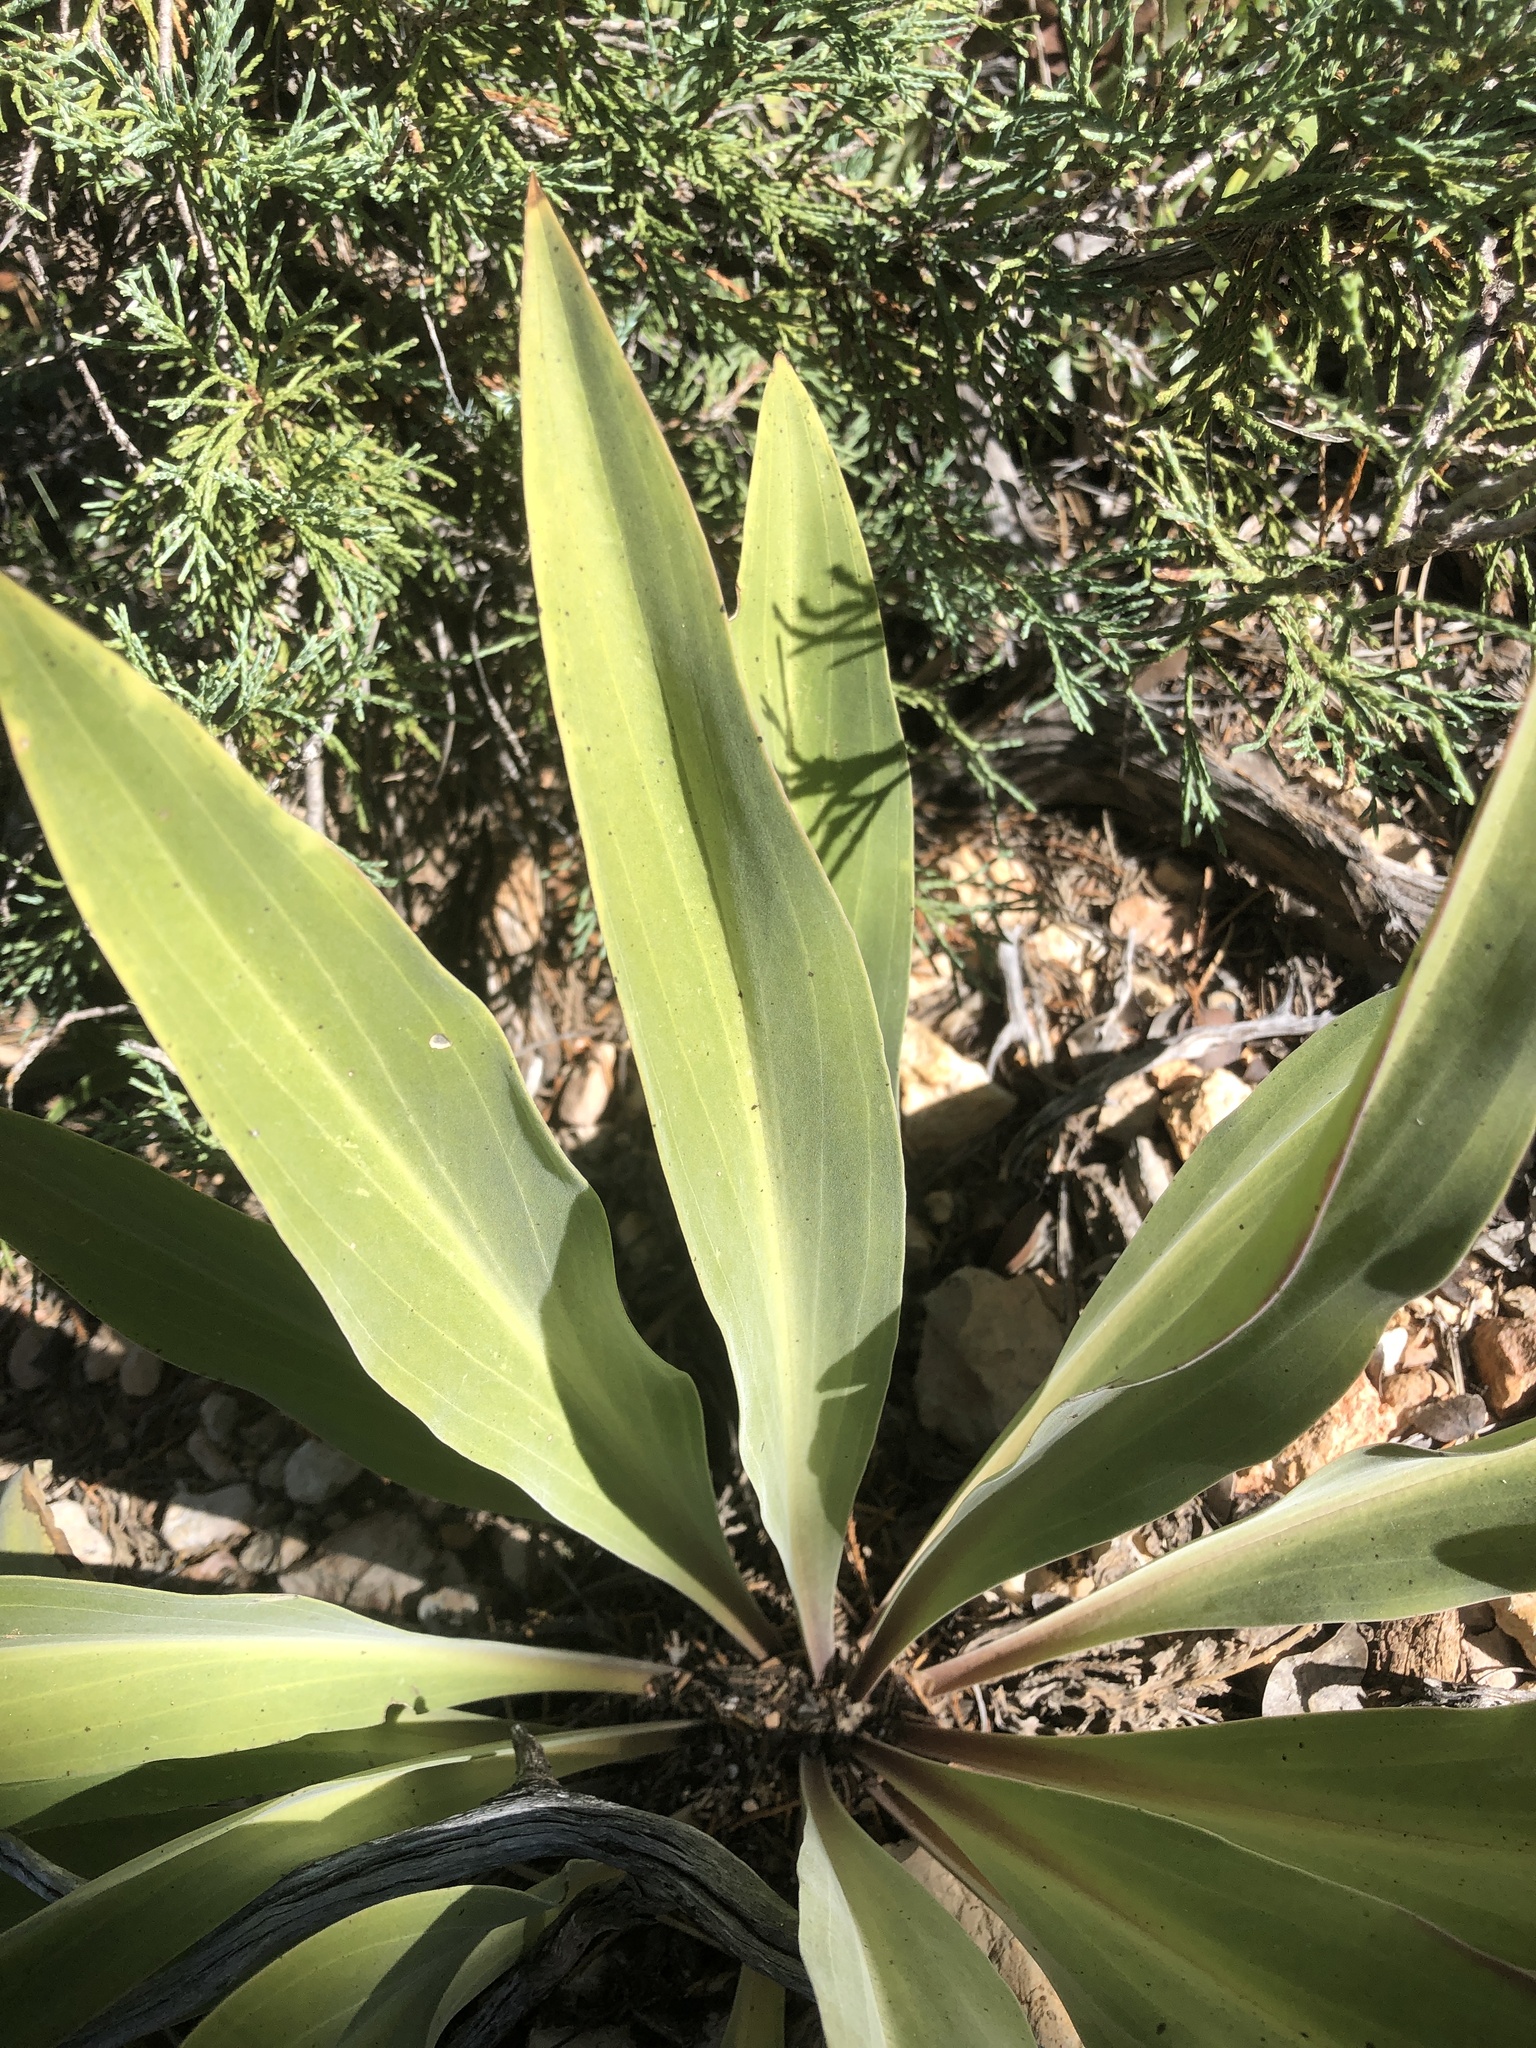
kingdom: Plantae
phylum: Tracheophyta
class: Magnoliopsida
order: Gentianales
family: Gentianaceae
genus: Frasera
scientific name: Frasera speciosa
